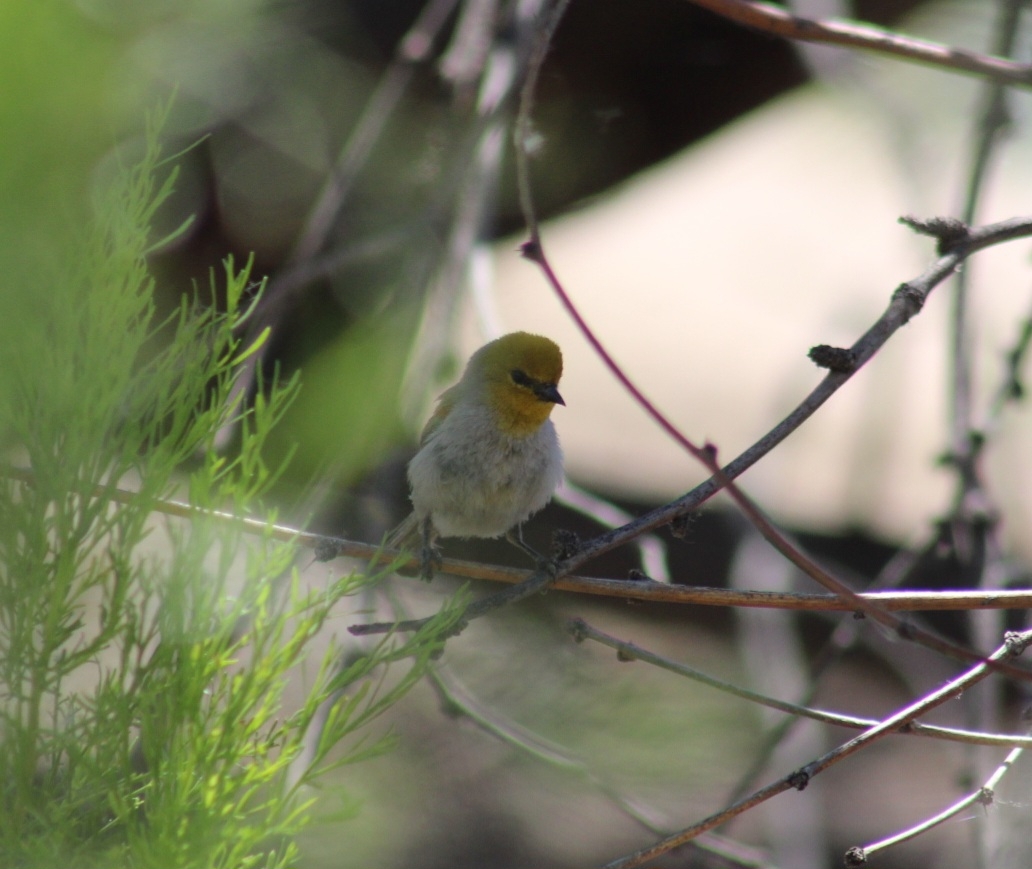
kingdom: Animalia
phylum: Chordata
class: Aves
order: Passeriformes
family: Remizidae
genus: Auriparus
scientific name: Auriparus flaviceps
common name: Verdin
